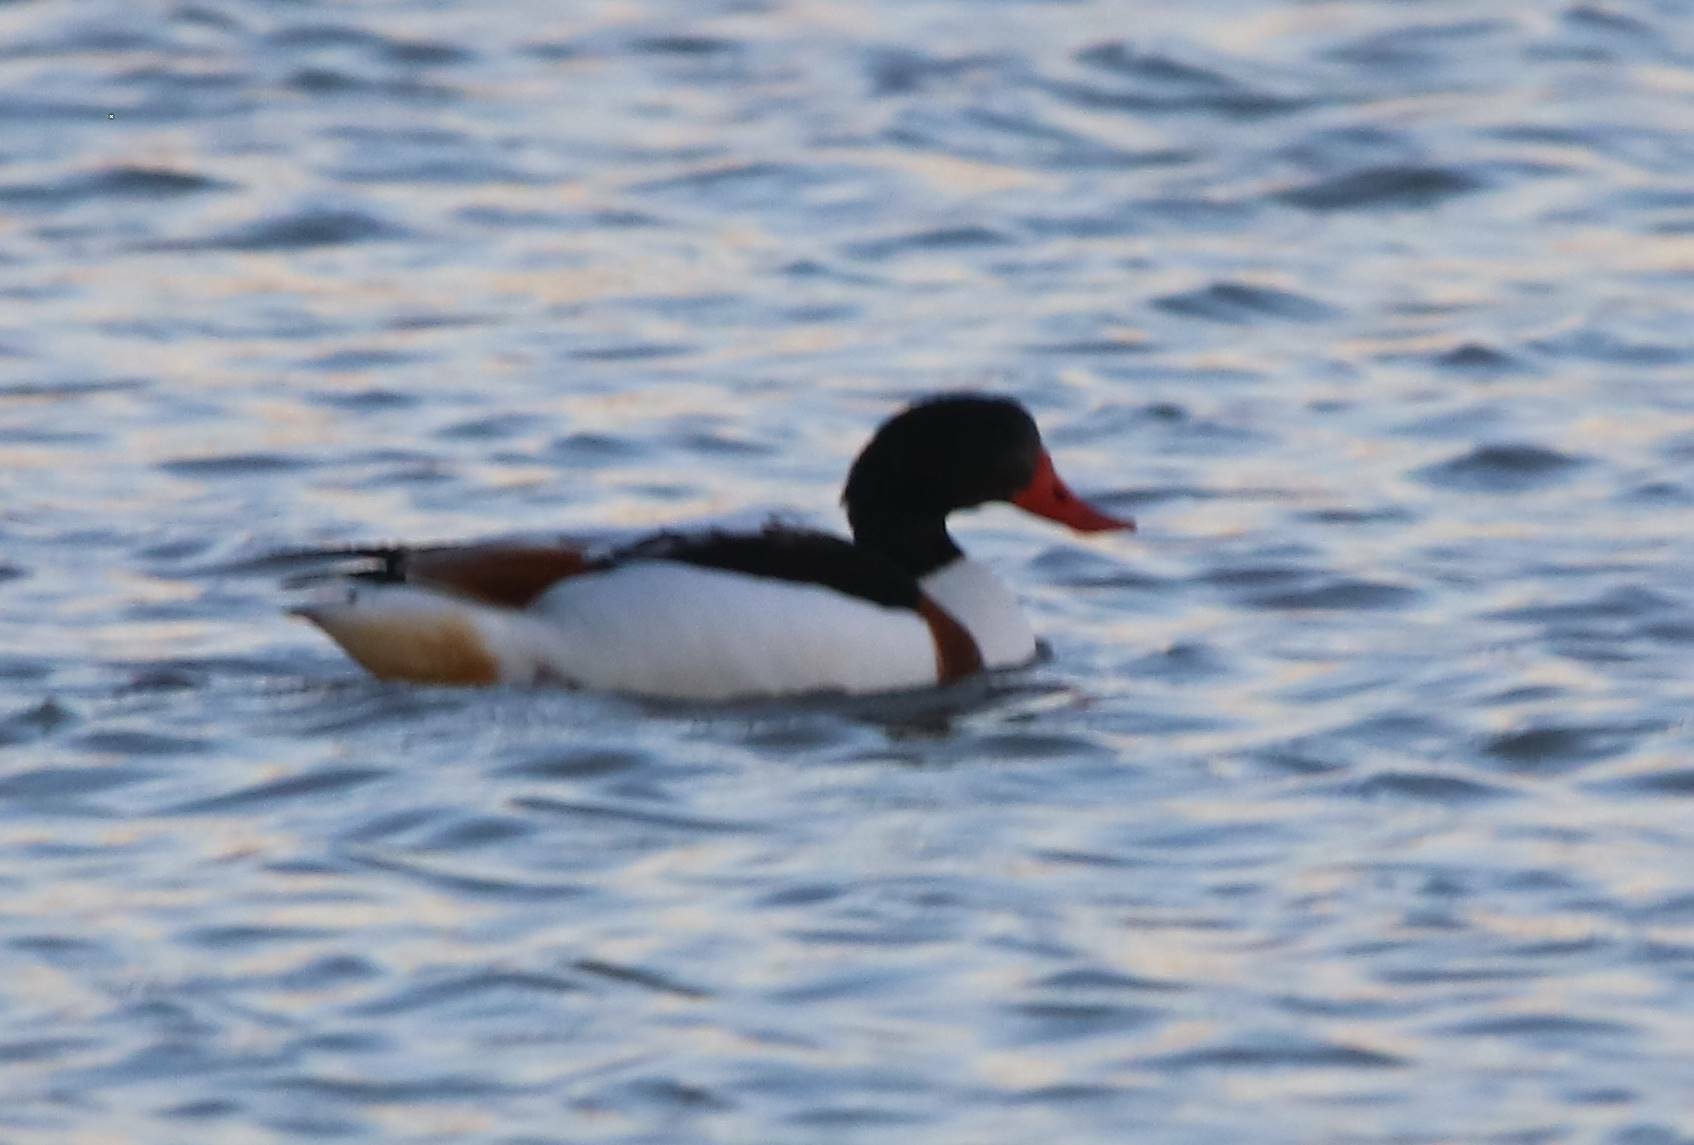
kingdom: Animalia
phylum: Chordata
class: Aves
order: Anseriformes
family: Anatidae
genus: Tadorna
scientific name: Tadorna tadorna
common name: Common shelduck
